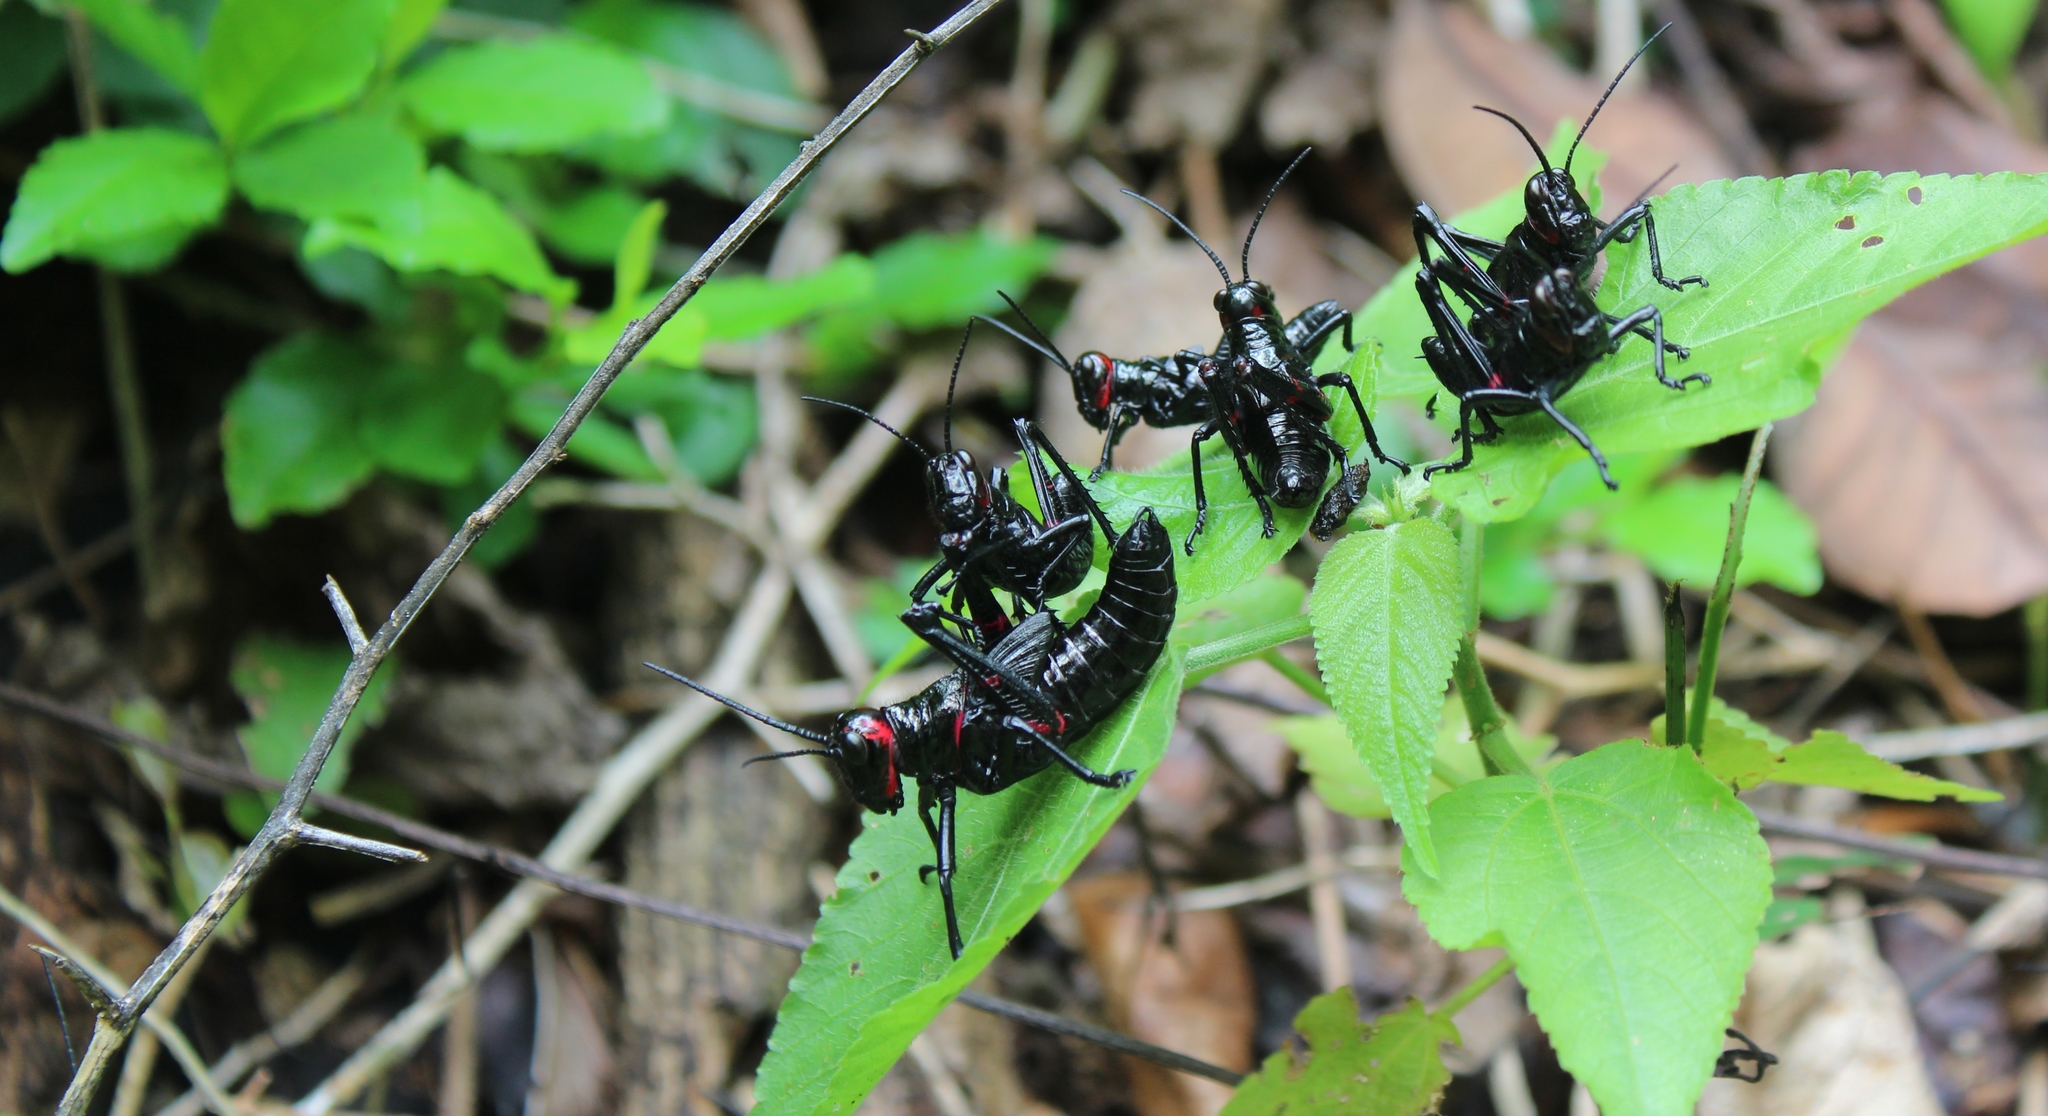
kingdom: Animalia
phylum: Arthropoda
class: Insecta
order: Orthoptera
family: Romaleidae
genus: Chromacris
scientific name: Chromacris miles
